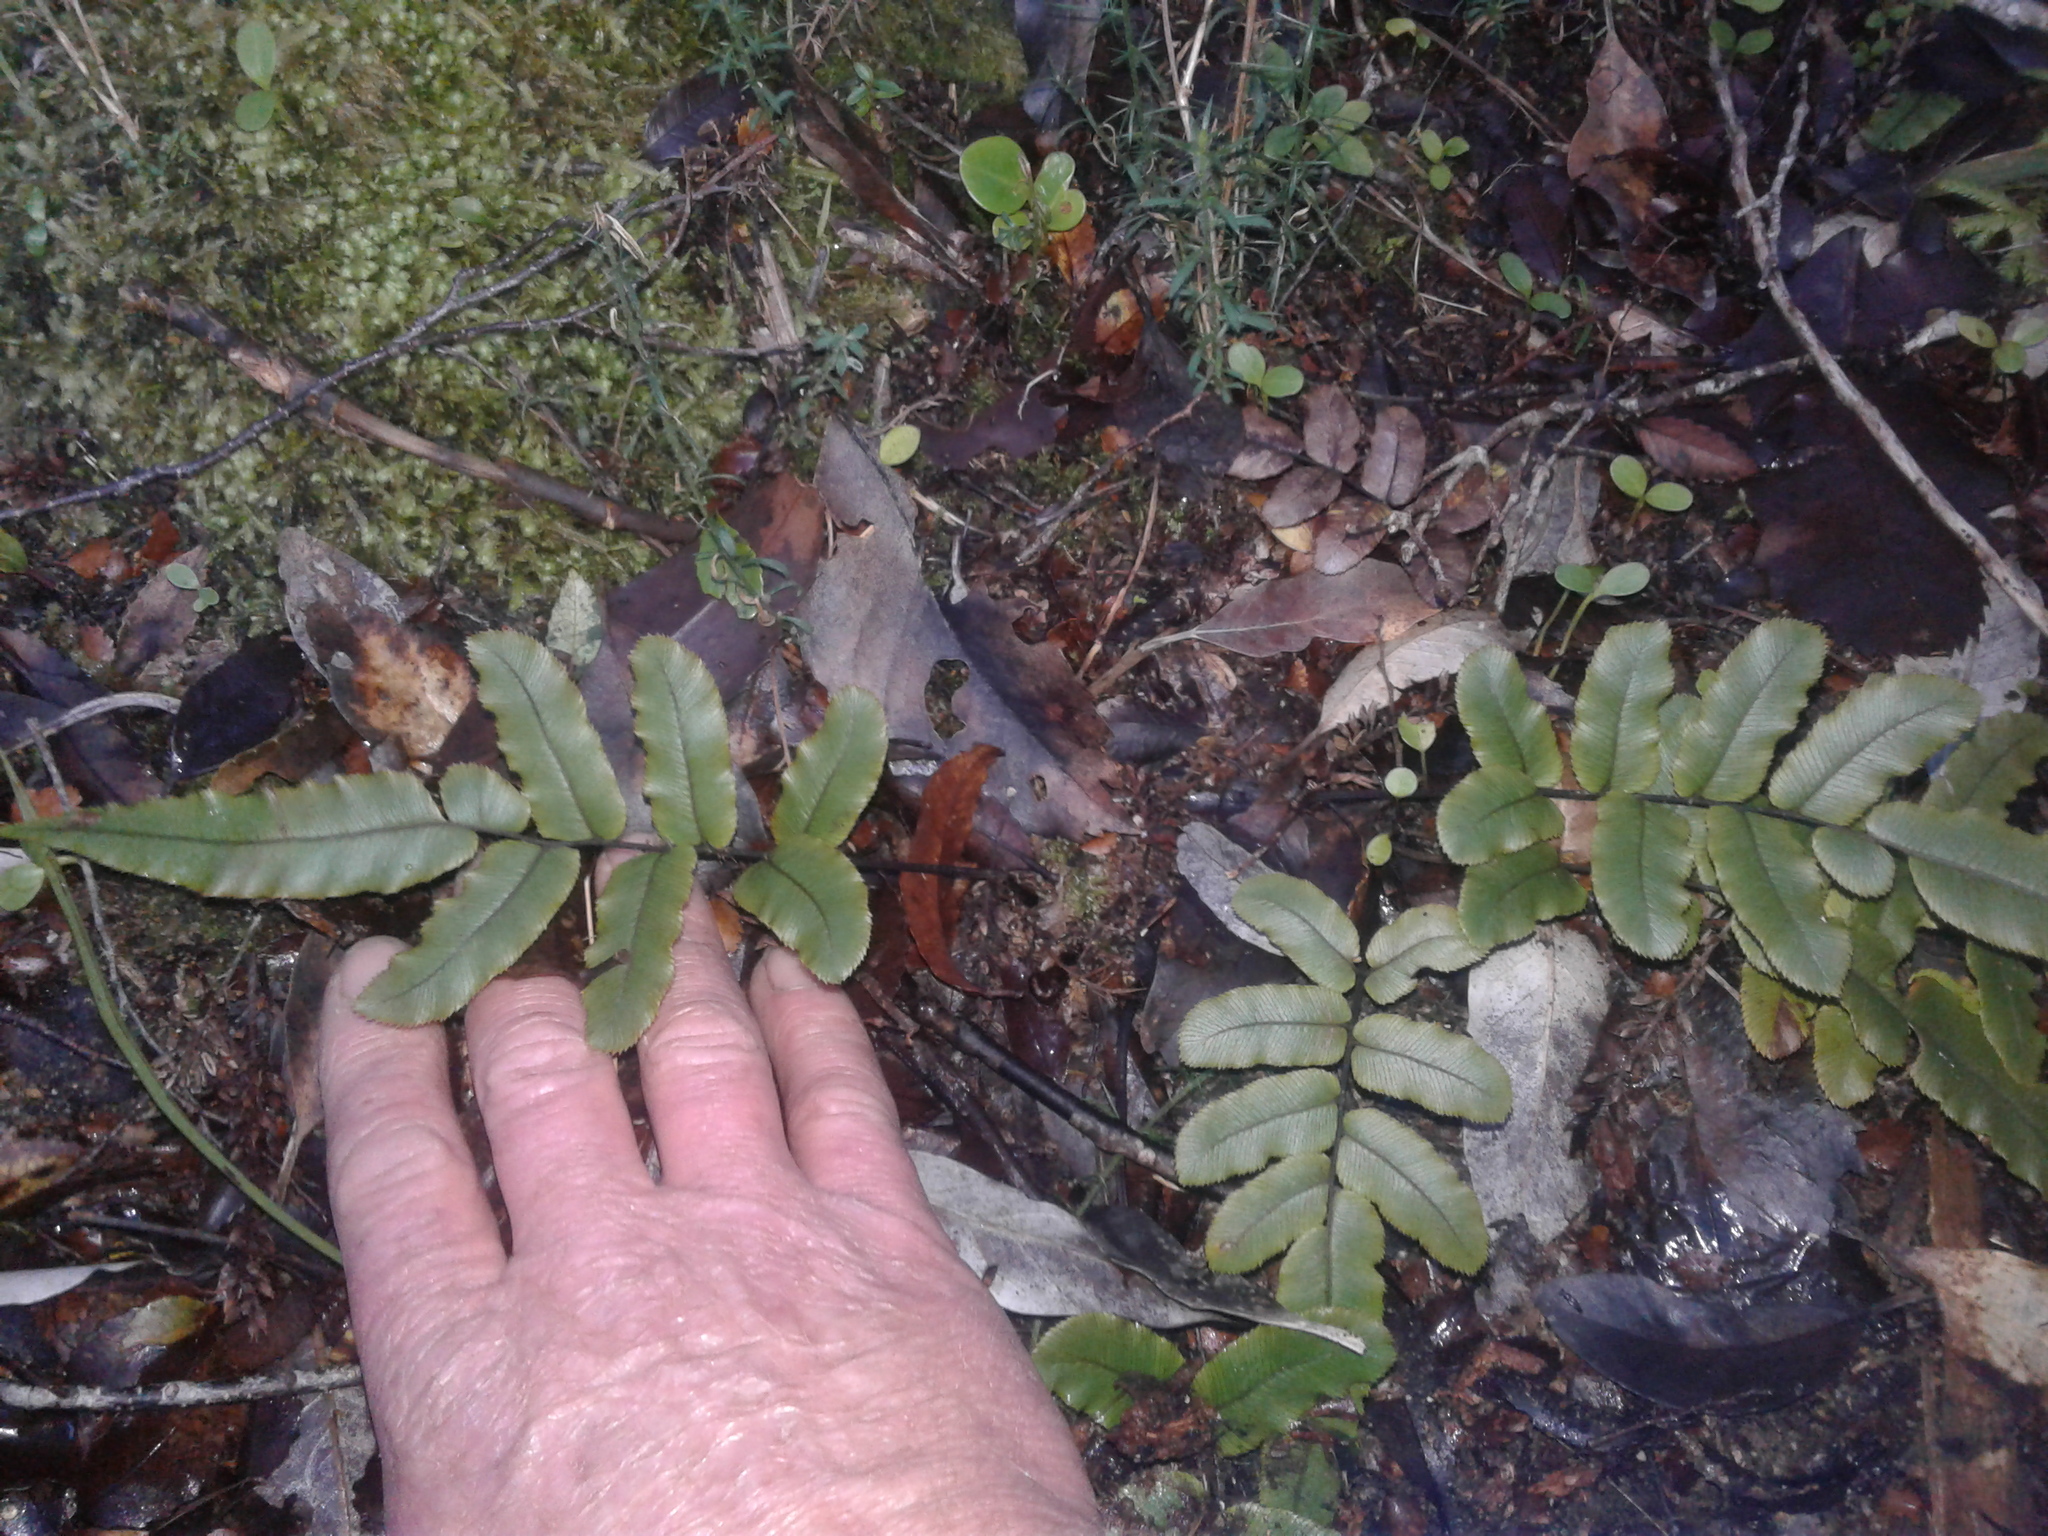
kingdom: Plantae
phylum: Tracheophyta
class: Polypodiopsida
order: Polypodiales
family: Blechnaceae
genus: Parablechnum
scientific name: Parablechnum procerum
